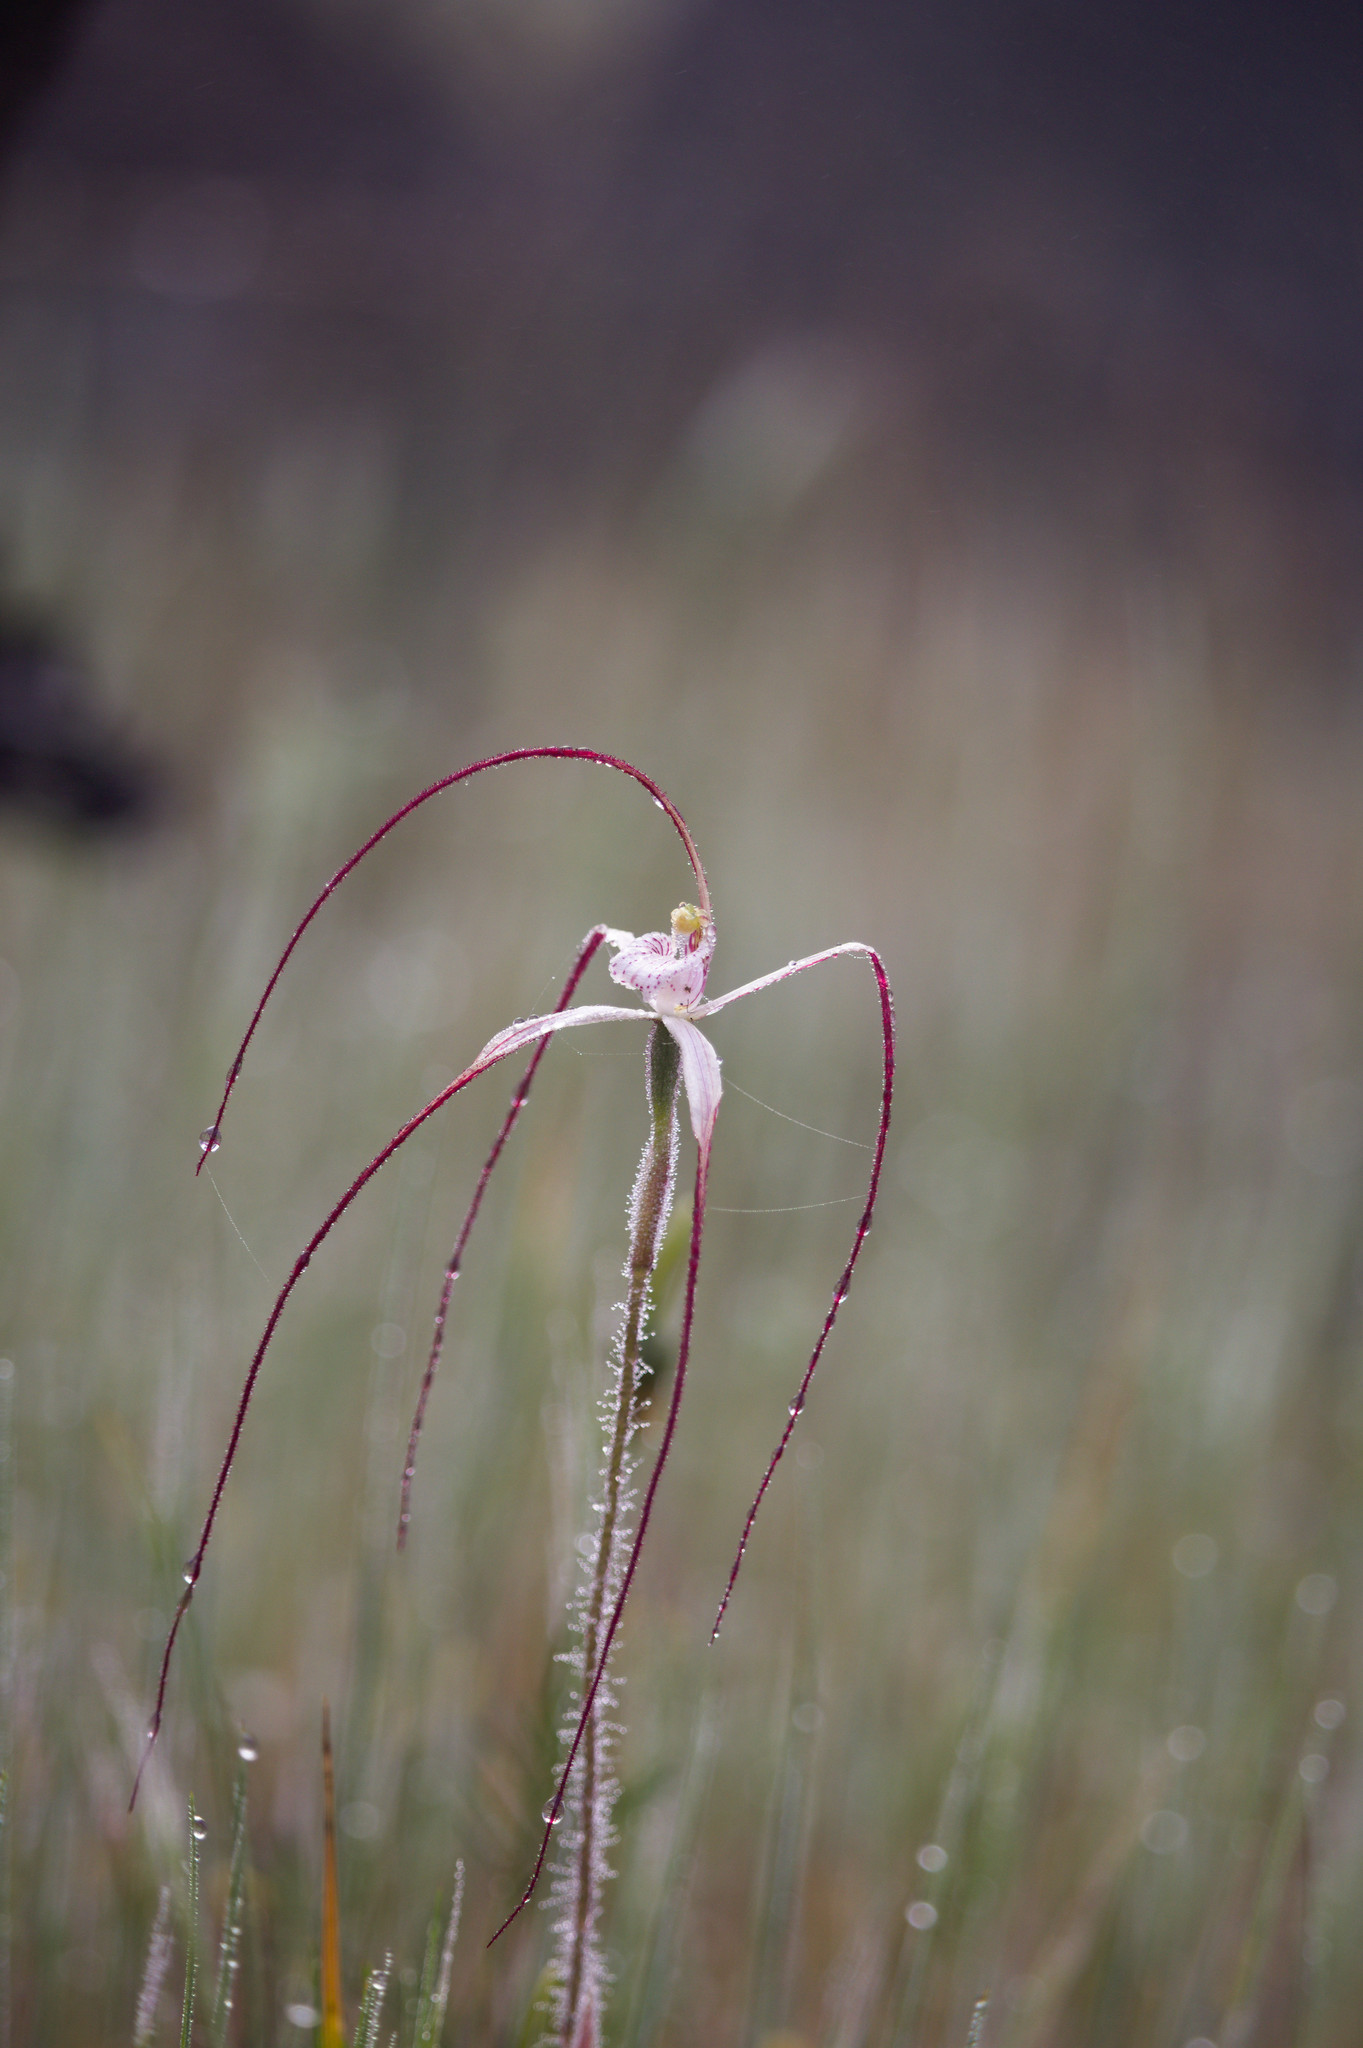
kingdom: Plantae
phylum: Tracheophyta
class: Liliopsida
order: Asparagales
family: Orchidaceae
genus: Caladenia
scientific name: Caladenia pendens
